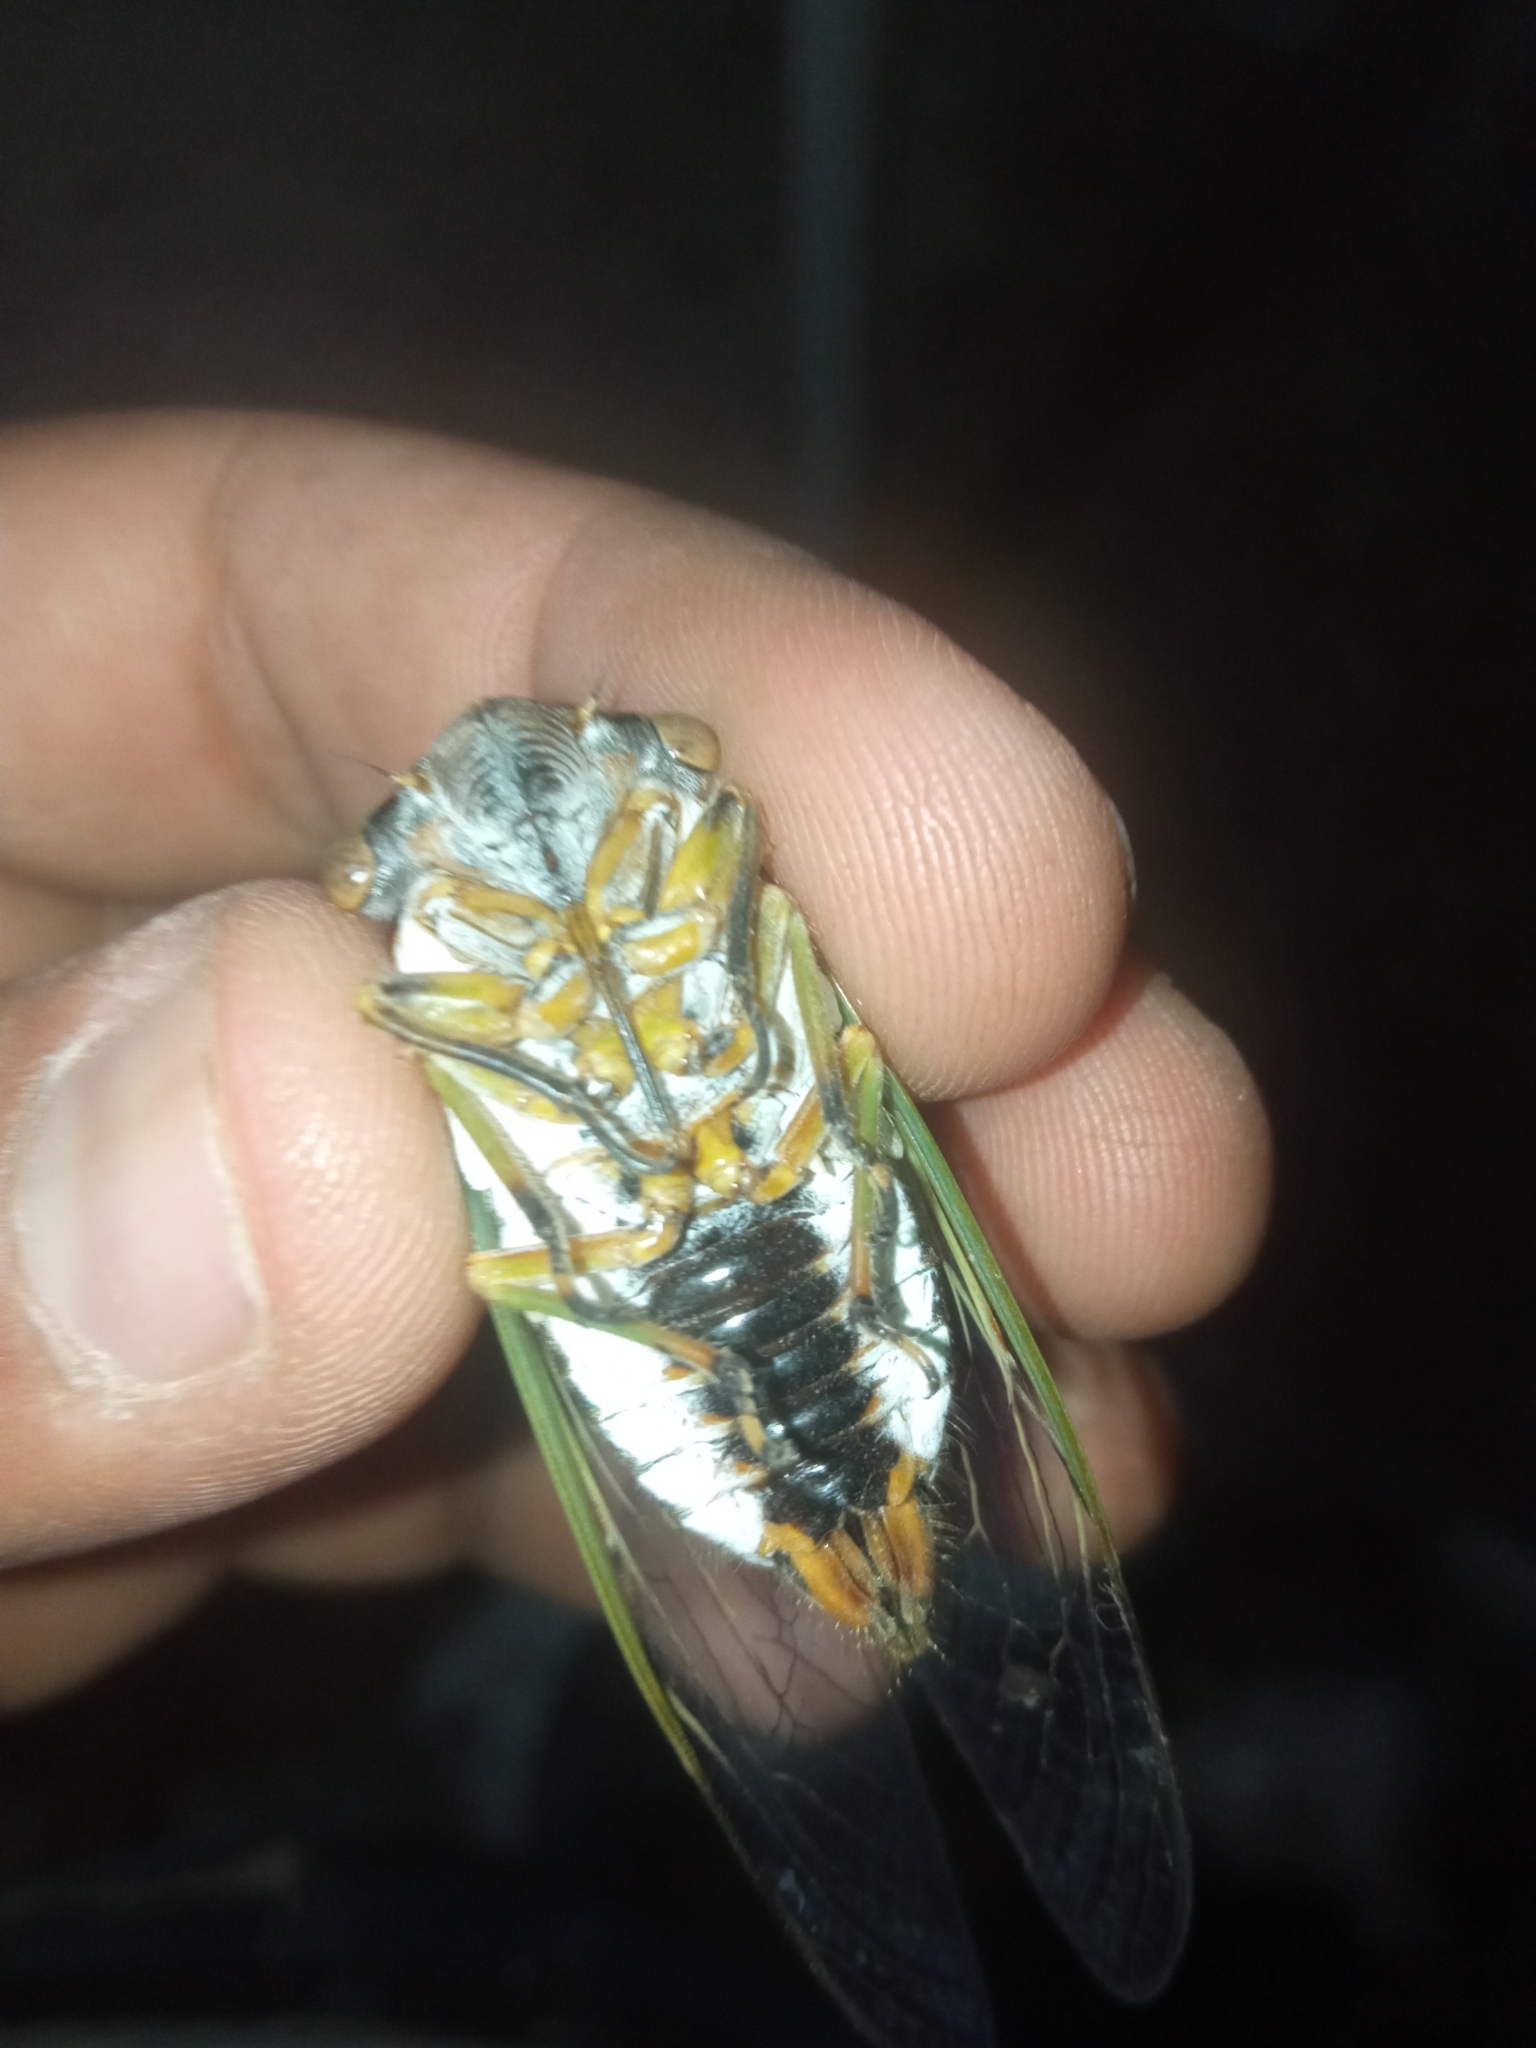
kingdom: Animalia
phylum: Arthropoda
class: Insecta
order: Hemiptera
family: Cicadidae
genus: Diceroprocta
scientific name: Diceroprocta ornea
